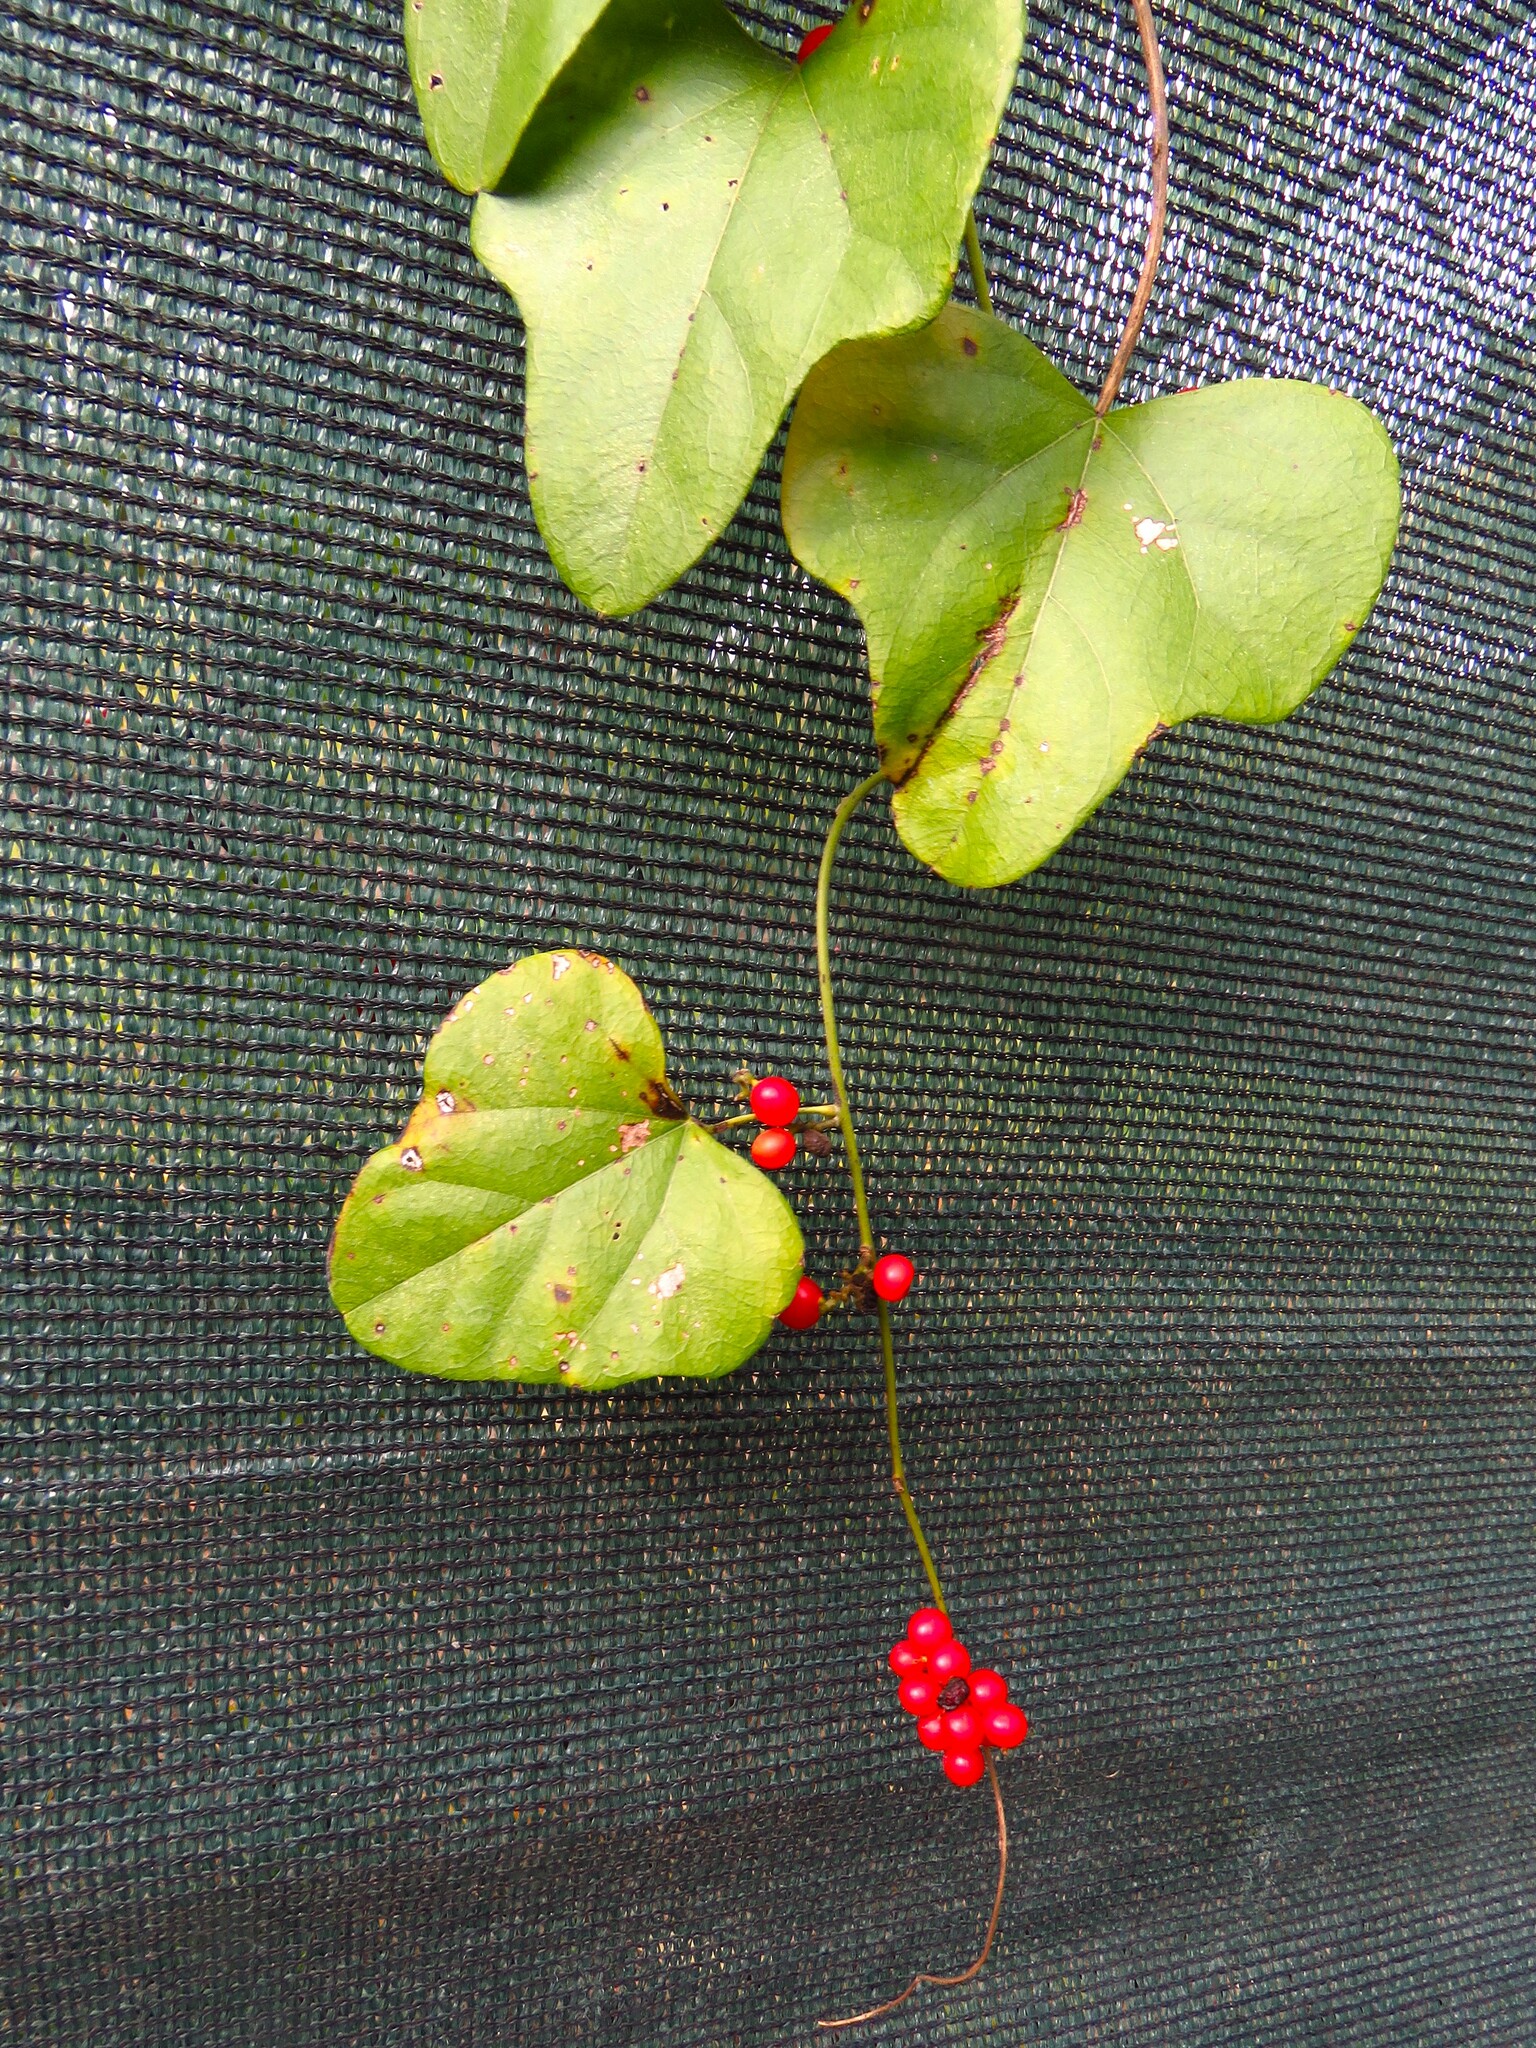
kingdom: Plantae
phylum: Tracheophyta
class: Magnoliopsida
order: Ranunculales
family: Menispermaceae
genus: Cocculus
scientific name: Cocculus carolinus
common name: Carolina moonseed
